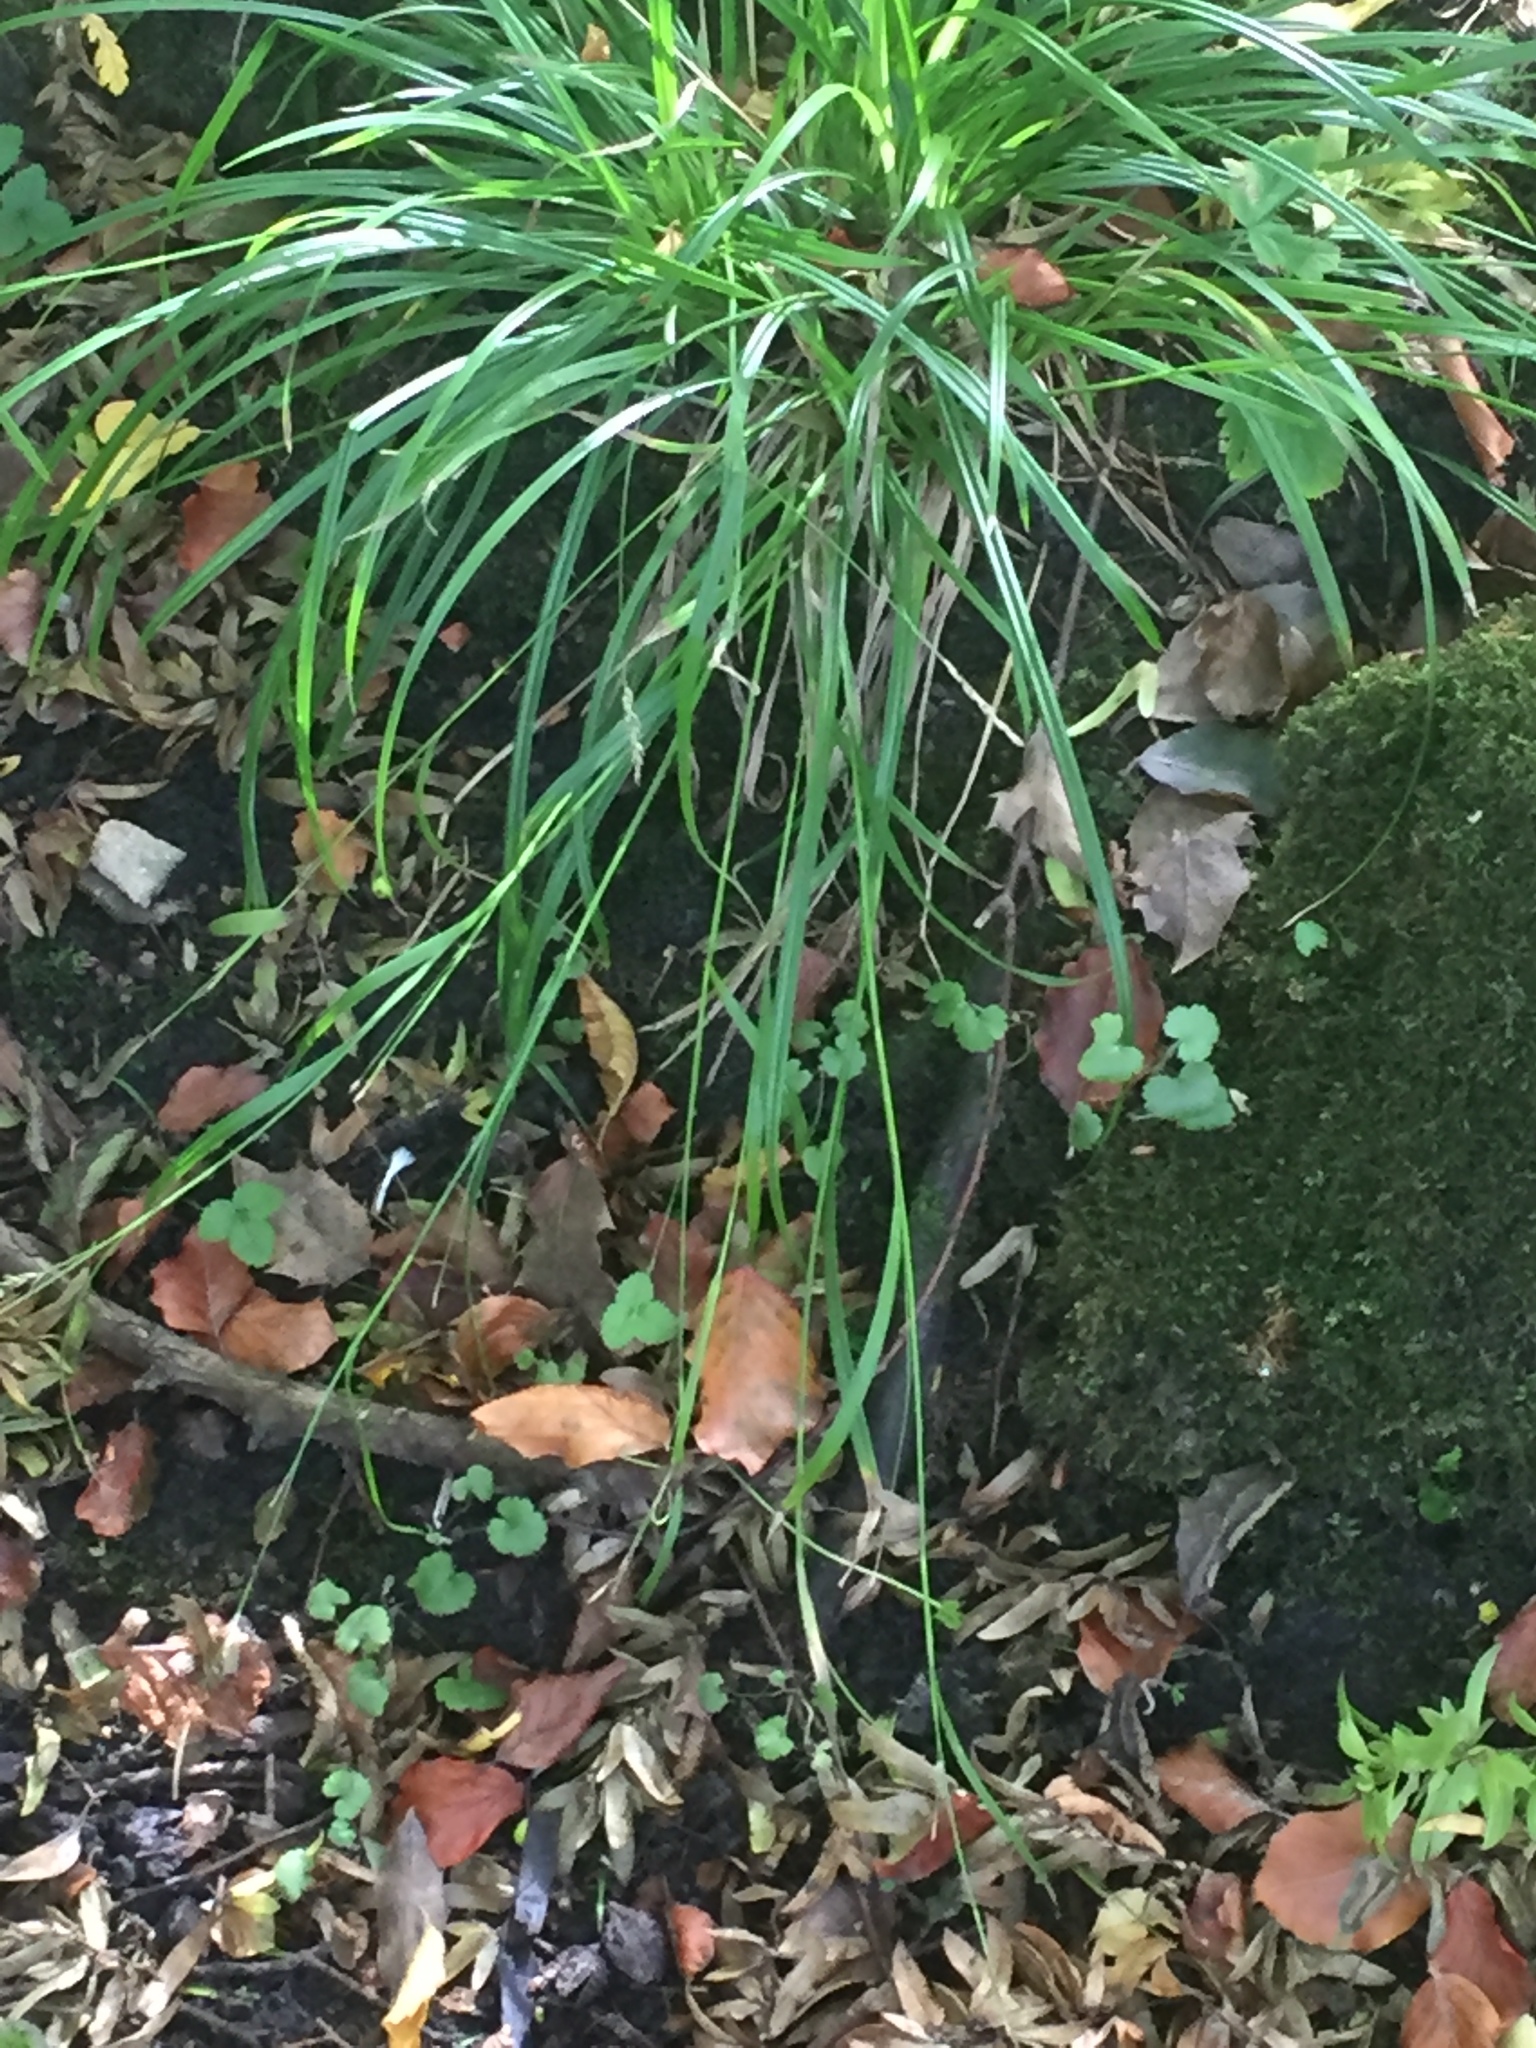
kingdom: Plantae
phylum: Tracheophyta
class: Liliopsida
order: Poales
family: Cyperaceae
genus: Carex
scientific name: Carex sylvatica
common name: Wood-sedge
